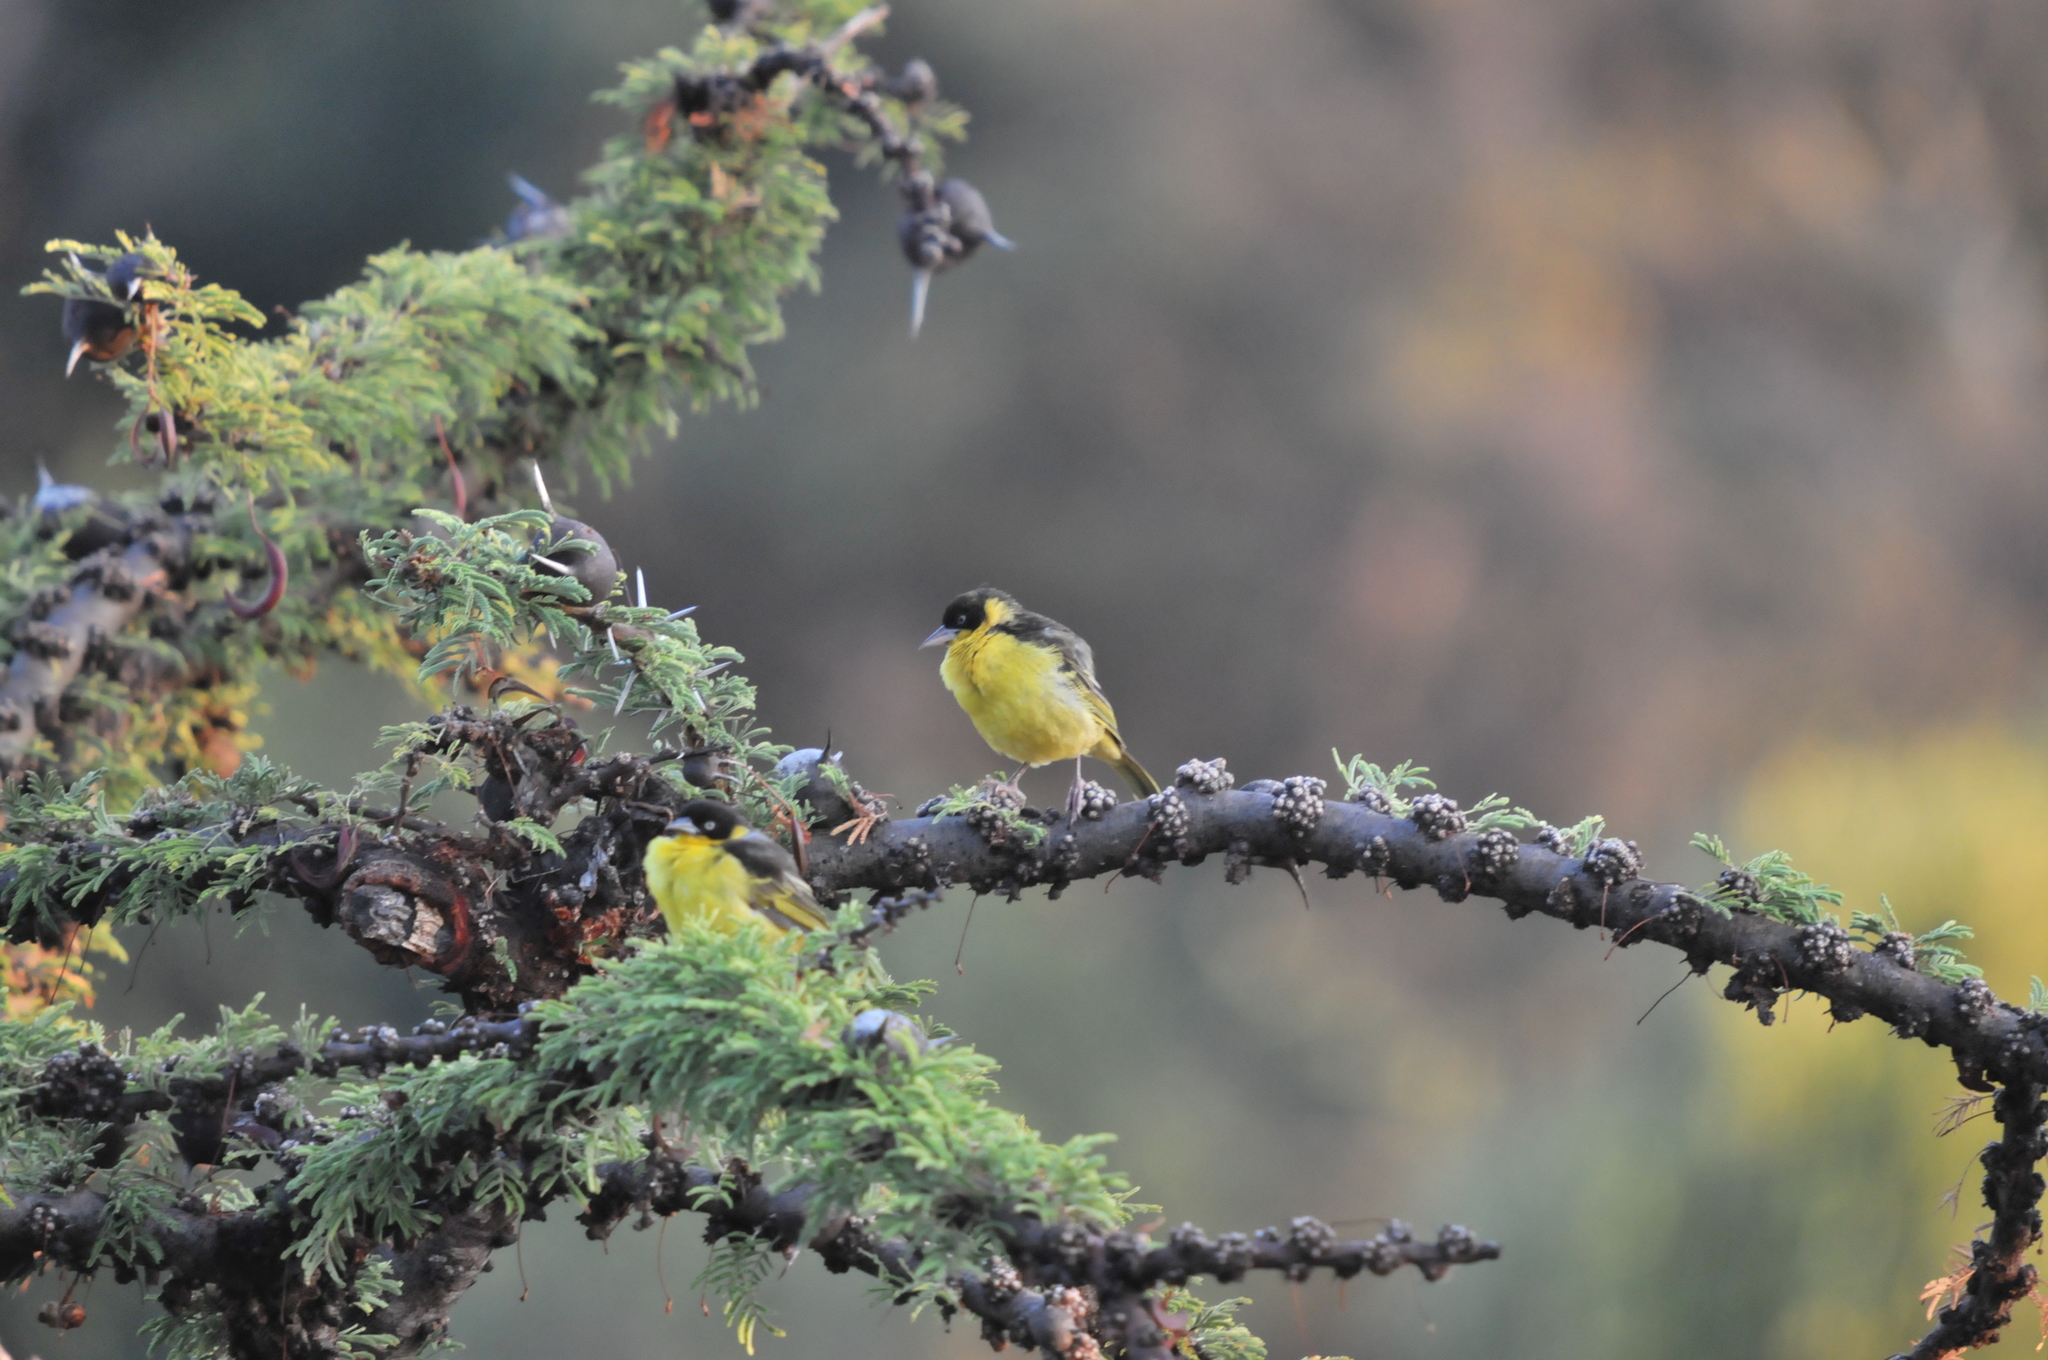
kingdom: Animalia
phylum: Chordata
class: Aves
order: Passeriformes
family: Ploceidae
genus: Ploceus
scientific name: Ploceus baglafecht
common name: Baglafecht weaver
